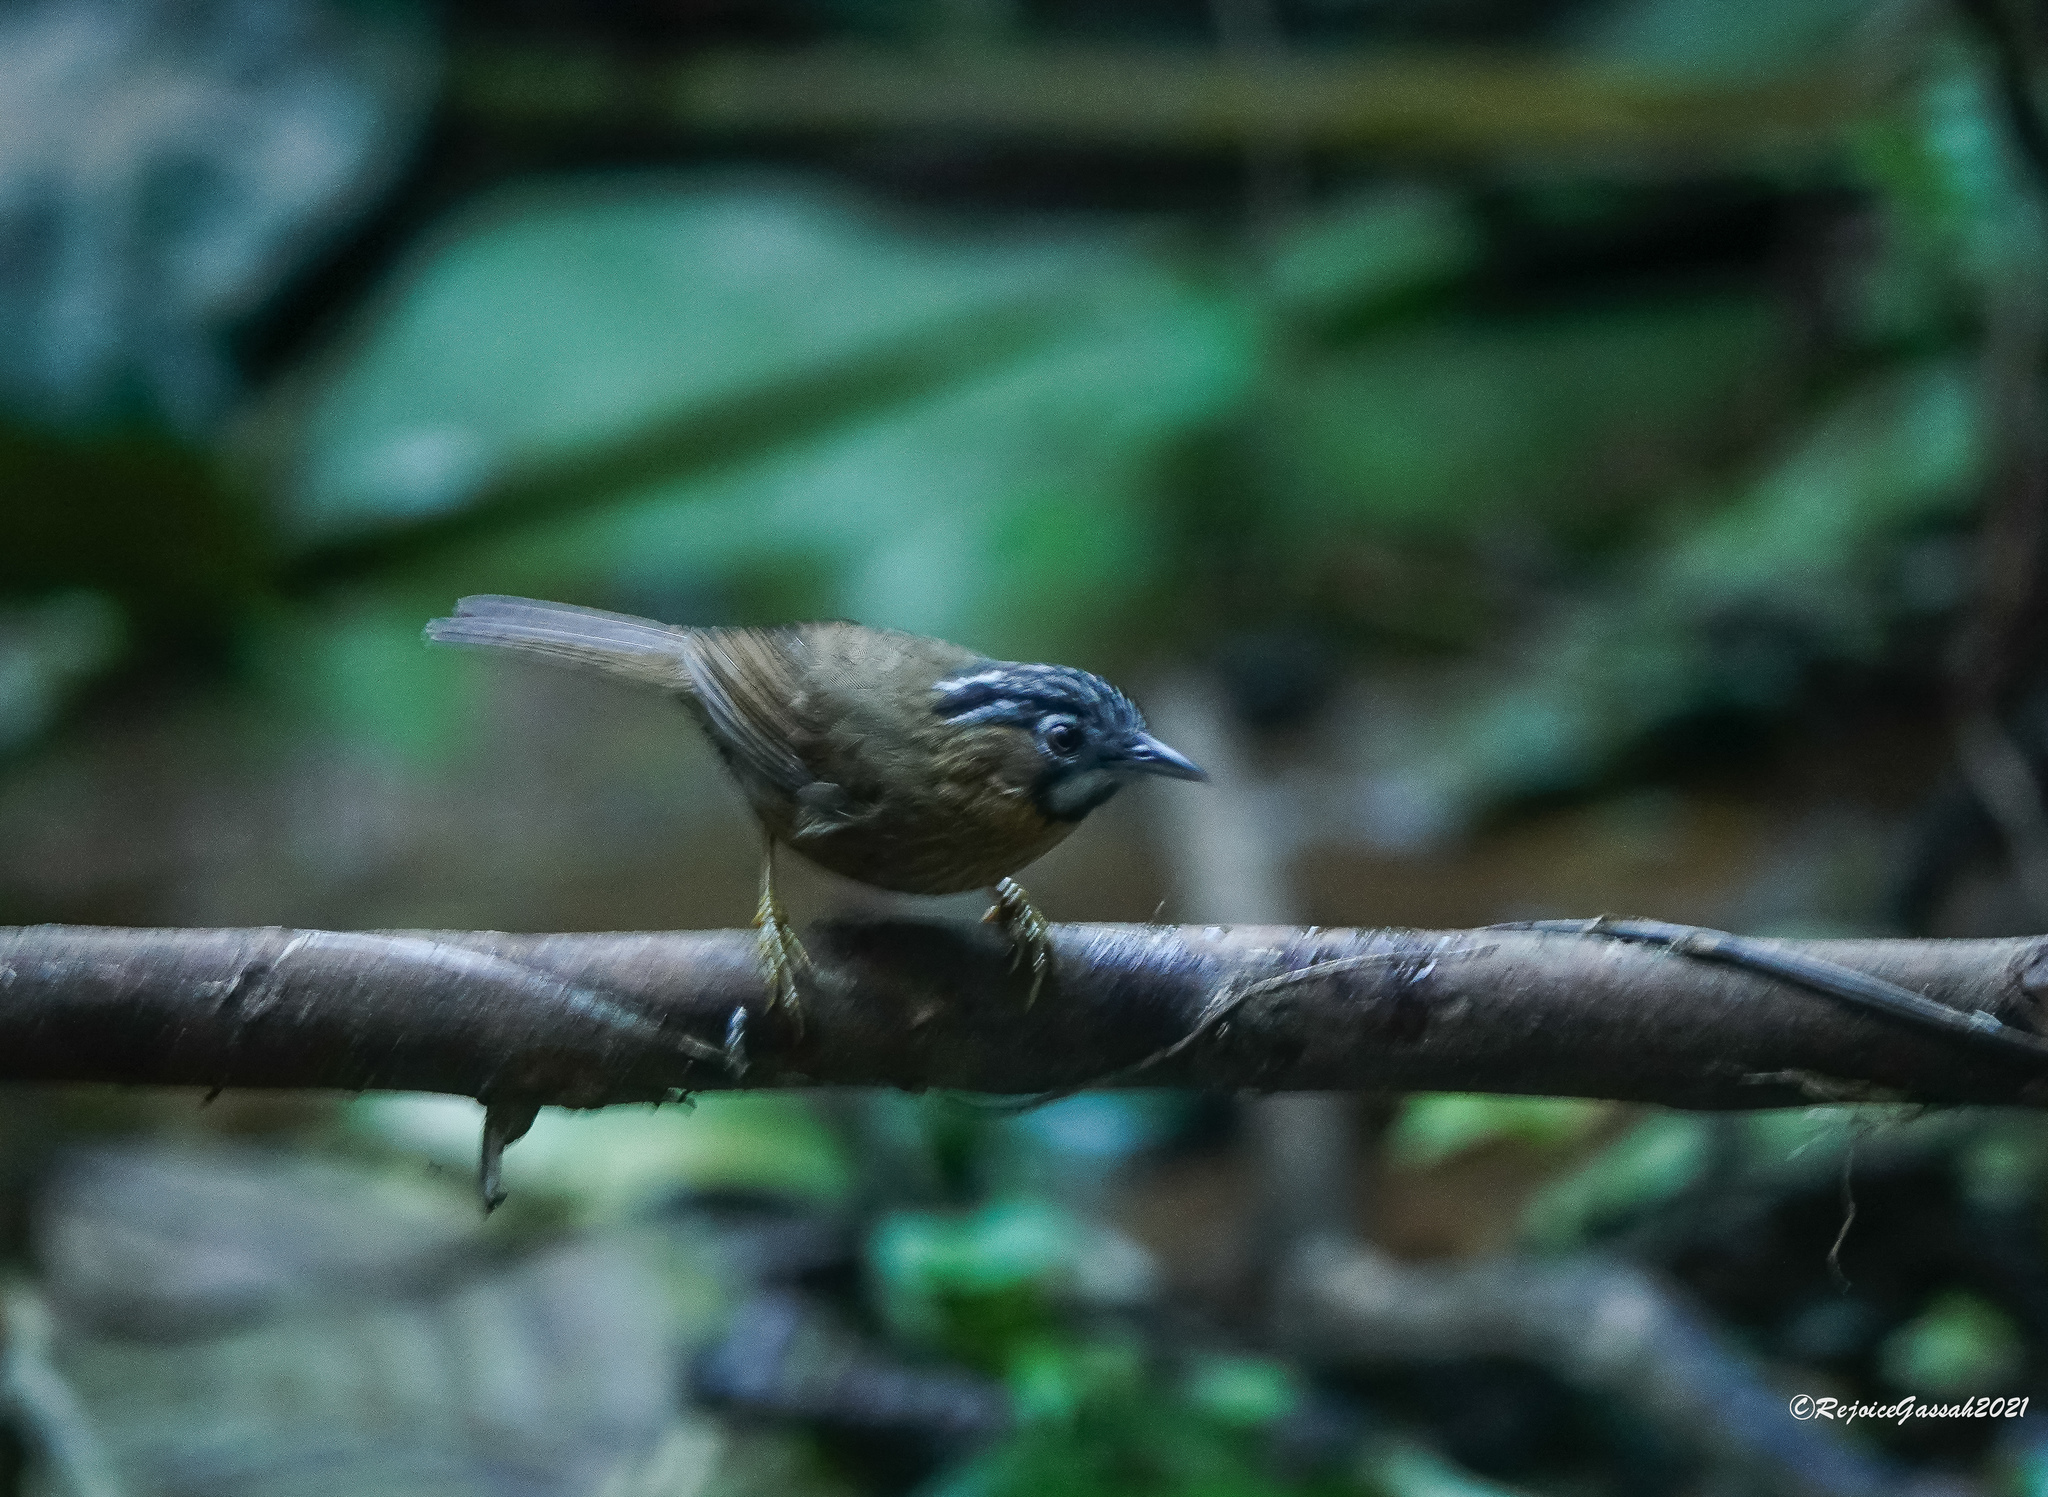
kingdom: Animalia
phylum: Chordata
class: Aves
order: Passeriformes
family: Timaliidae
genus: Stachyris
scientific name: Stachyris nigriceps
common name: Grey-throated babbler
